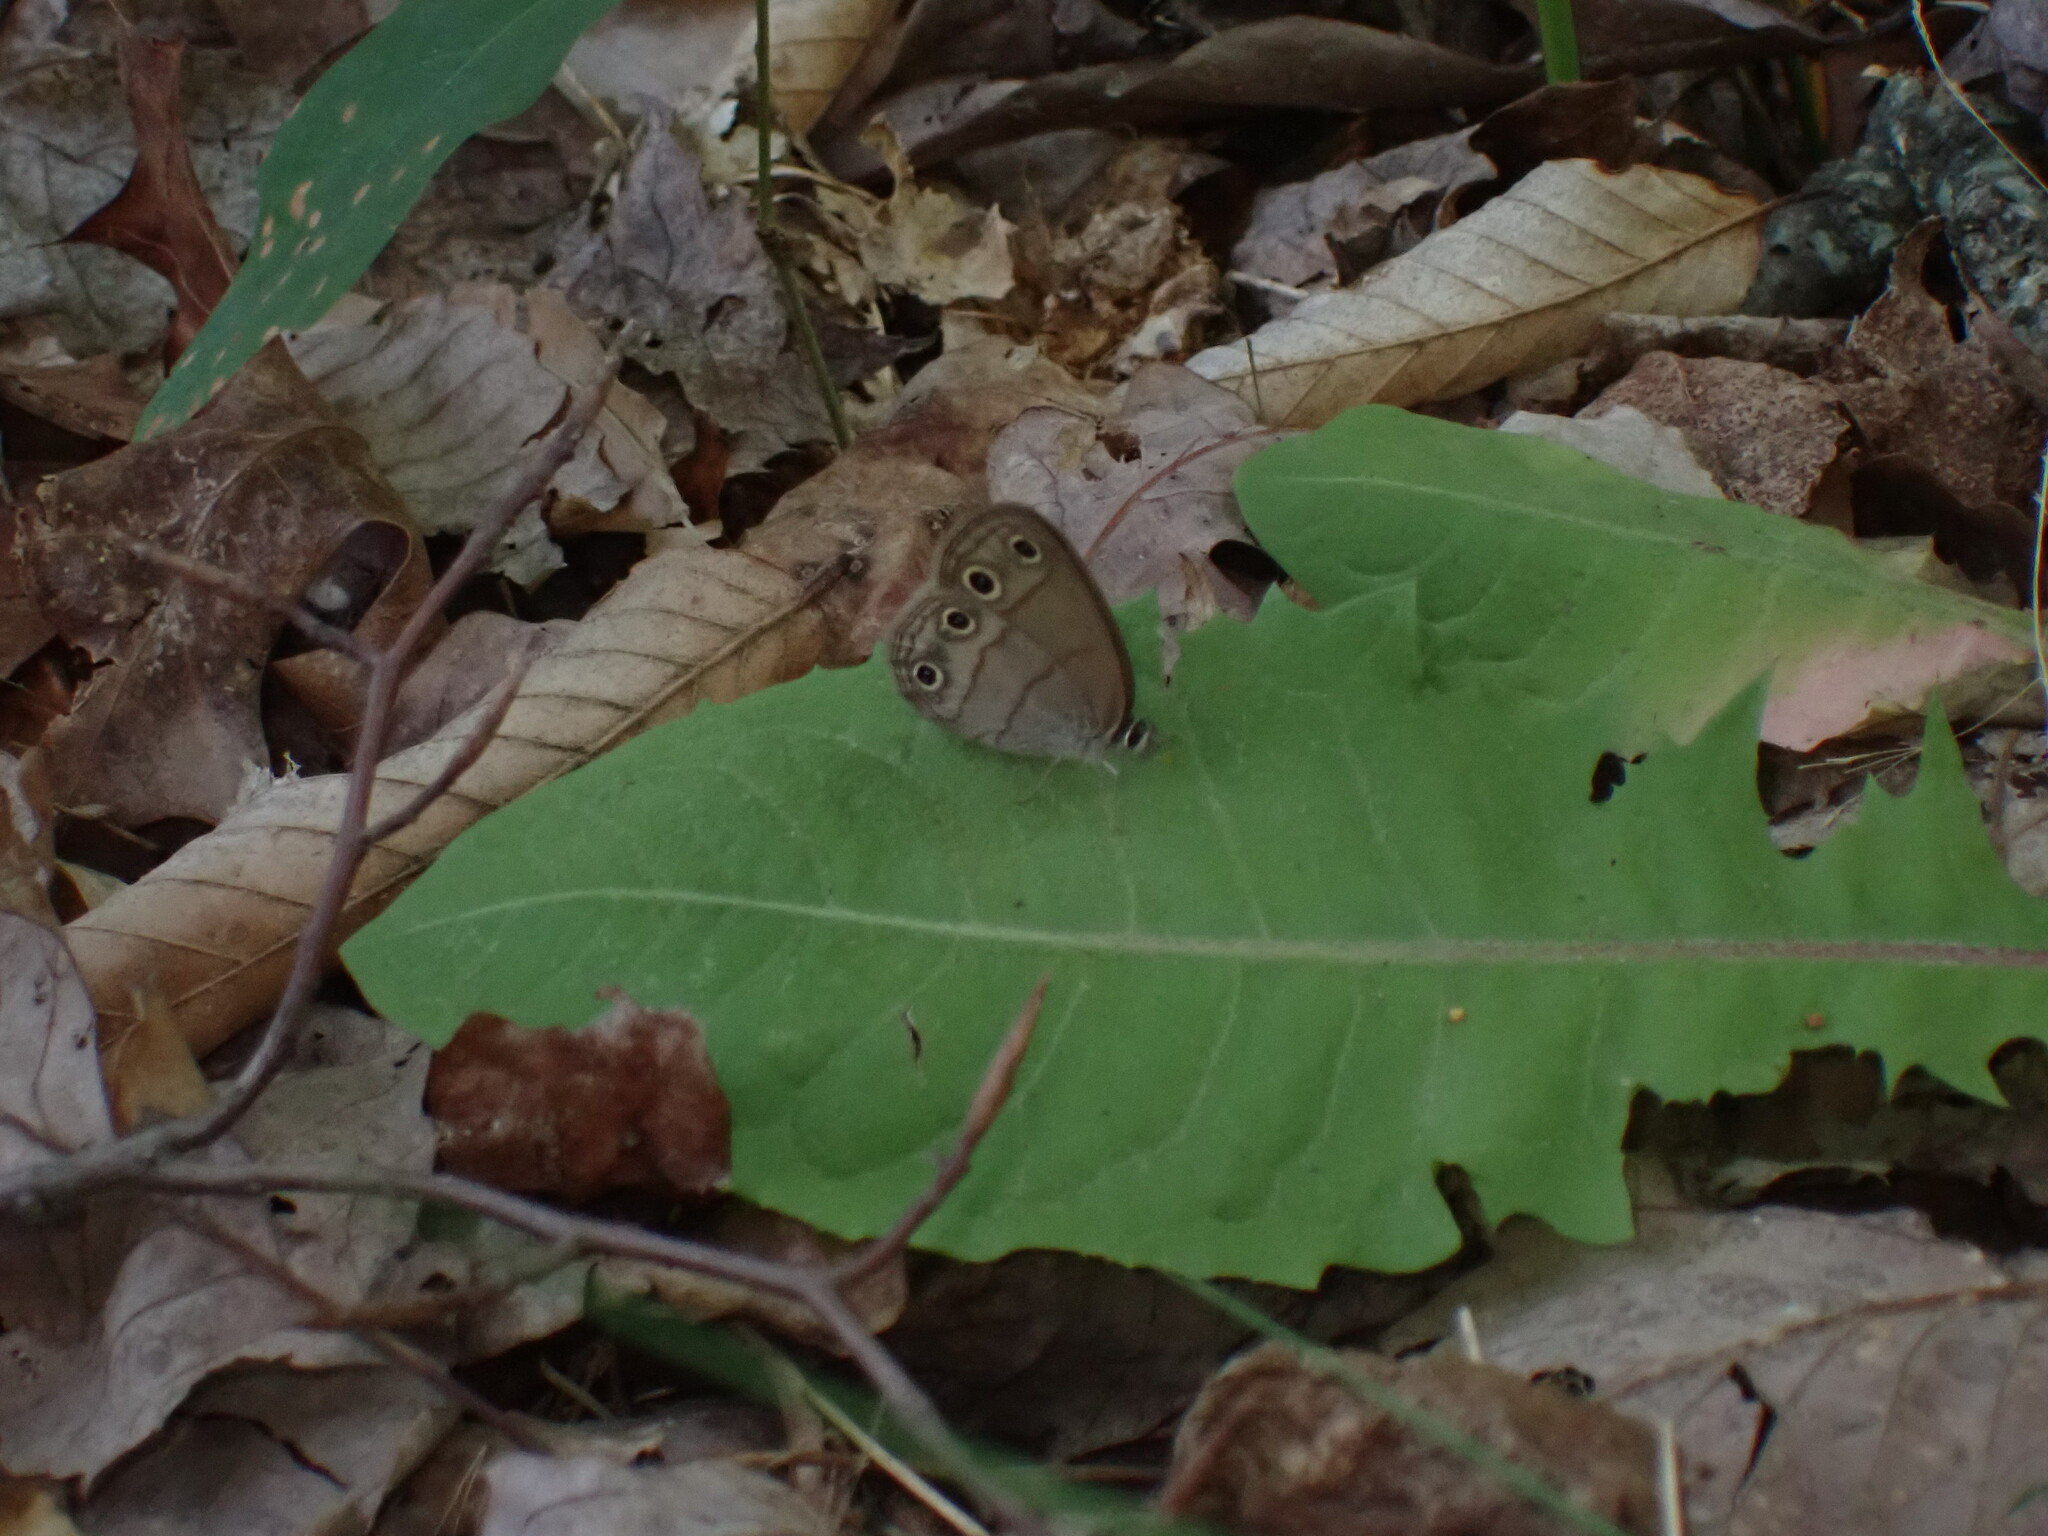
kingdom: Animalia
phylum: Arthropoda
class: Insecta
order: Lepidoptera
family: Nymphalidae
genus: Euptychia
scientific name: Euptychia cymela
